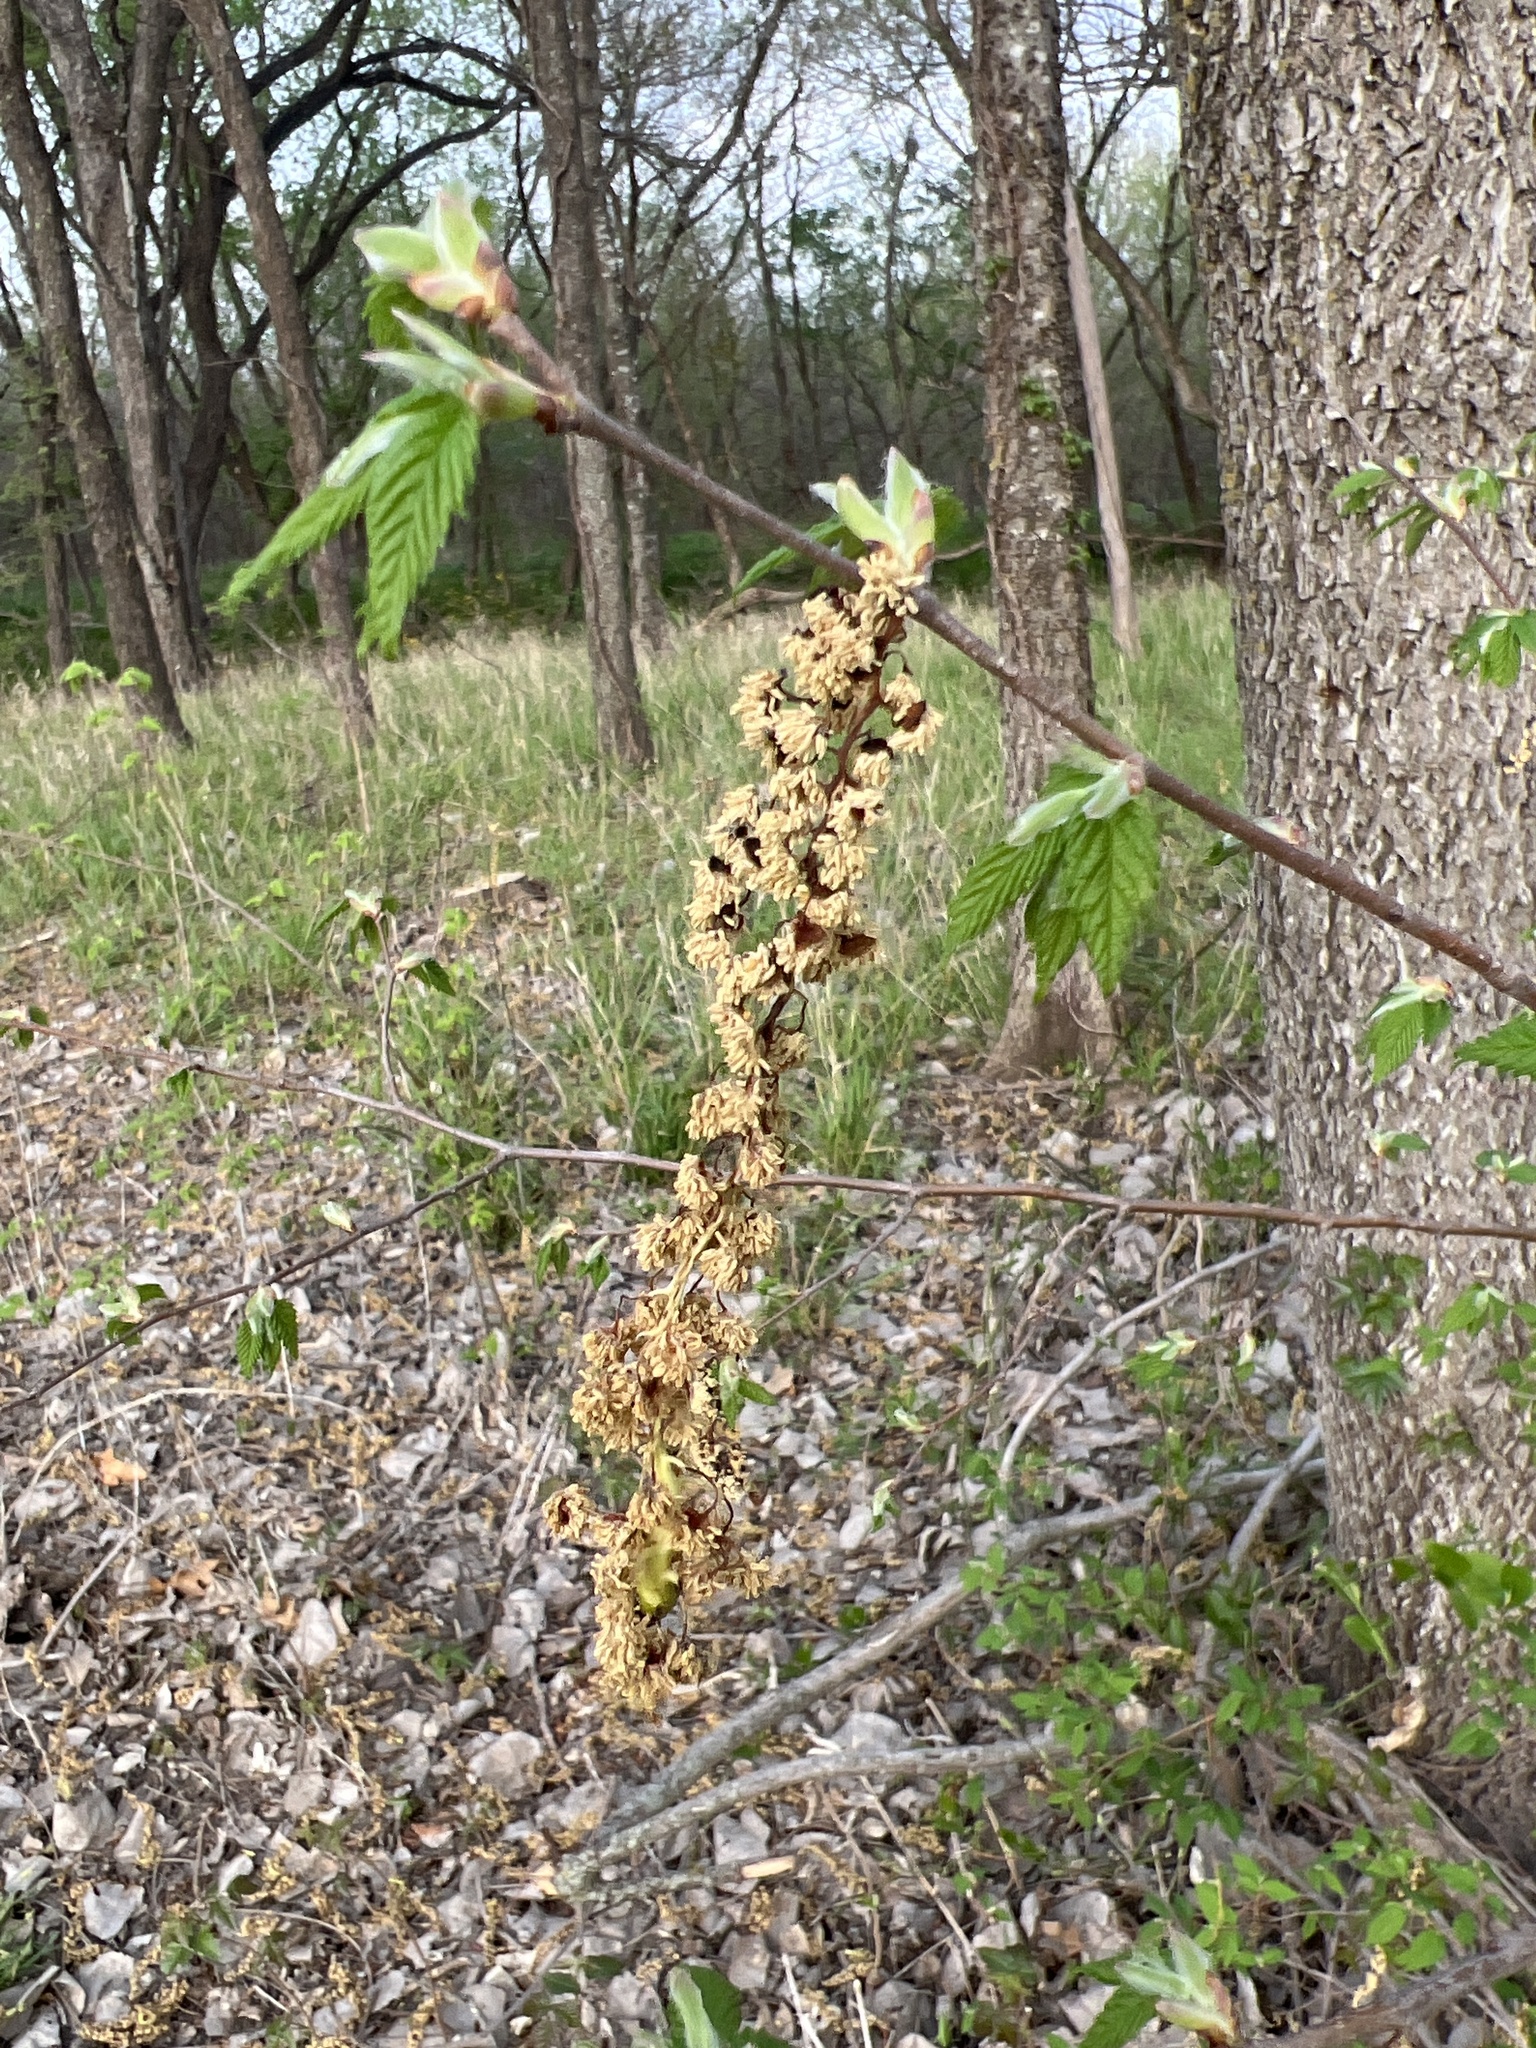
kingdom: Plantae
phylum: Tracheophyta
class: Magnoliopsida
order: Rosales
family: Ulmaceae
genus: Ulmus
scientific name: Ulmus americana
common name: American elm
